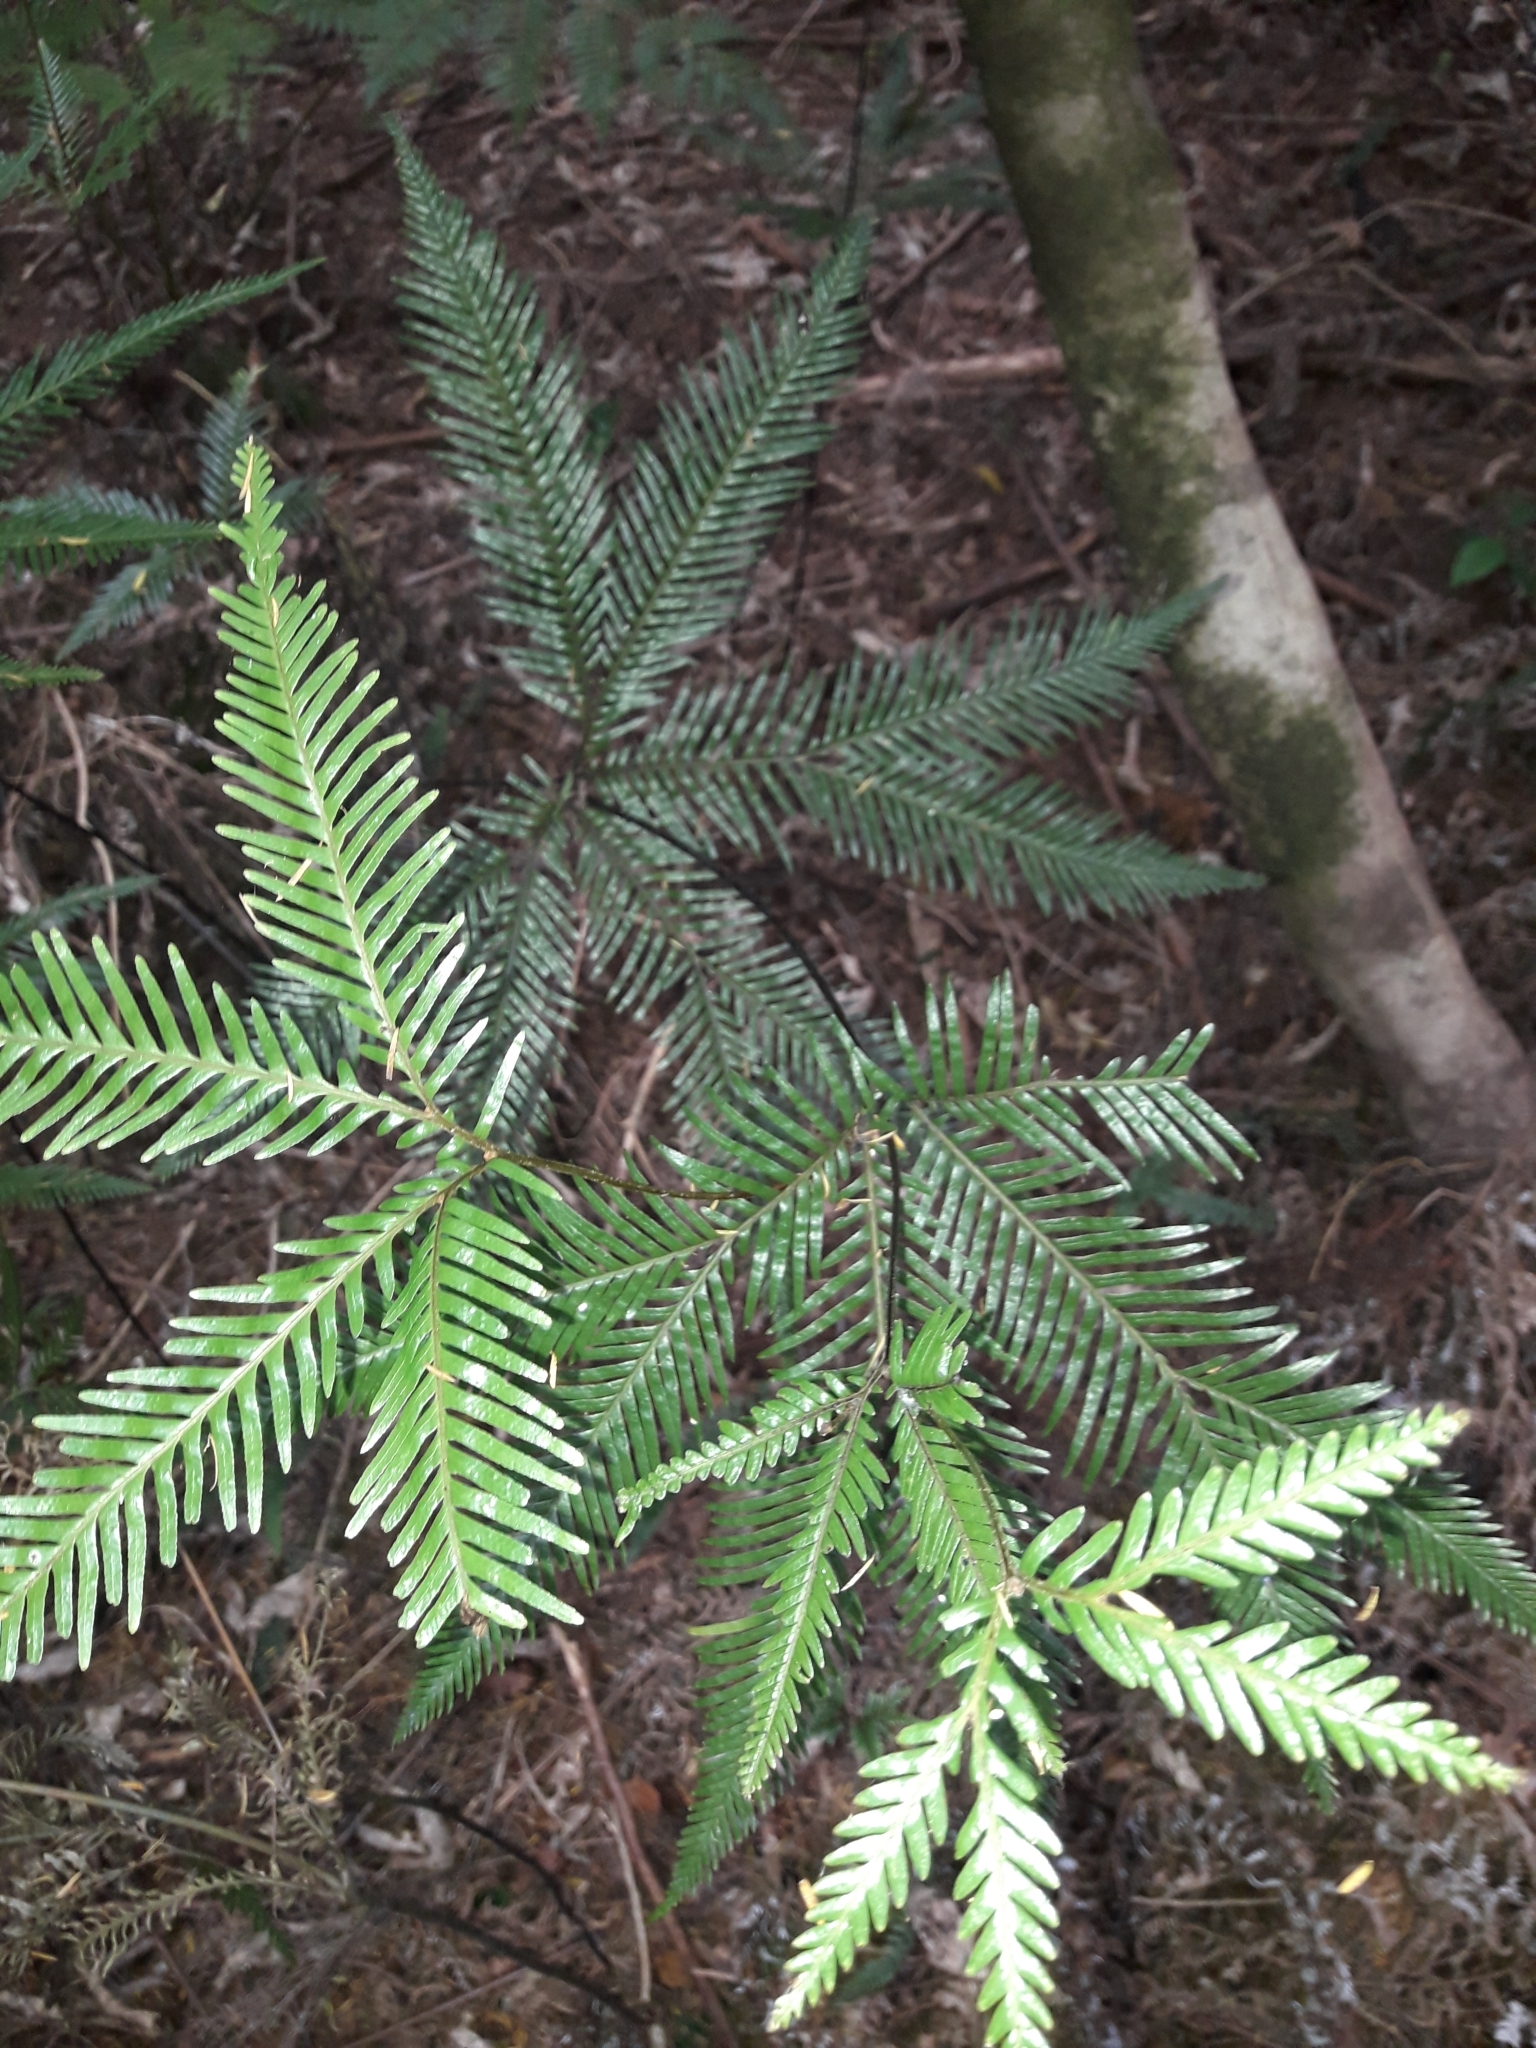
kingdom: Plantae
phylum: Tracheophyta
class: Polypodiopsida
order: Gleicheniales
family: Gleicheniaceae
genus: Sticherus
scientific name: Sticherus flabellatus
